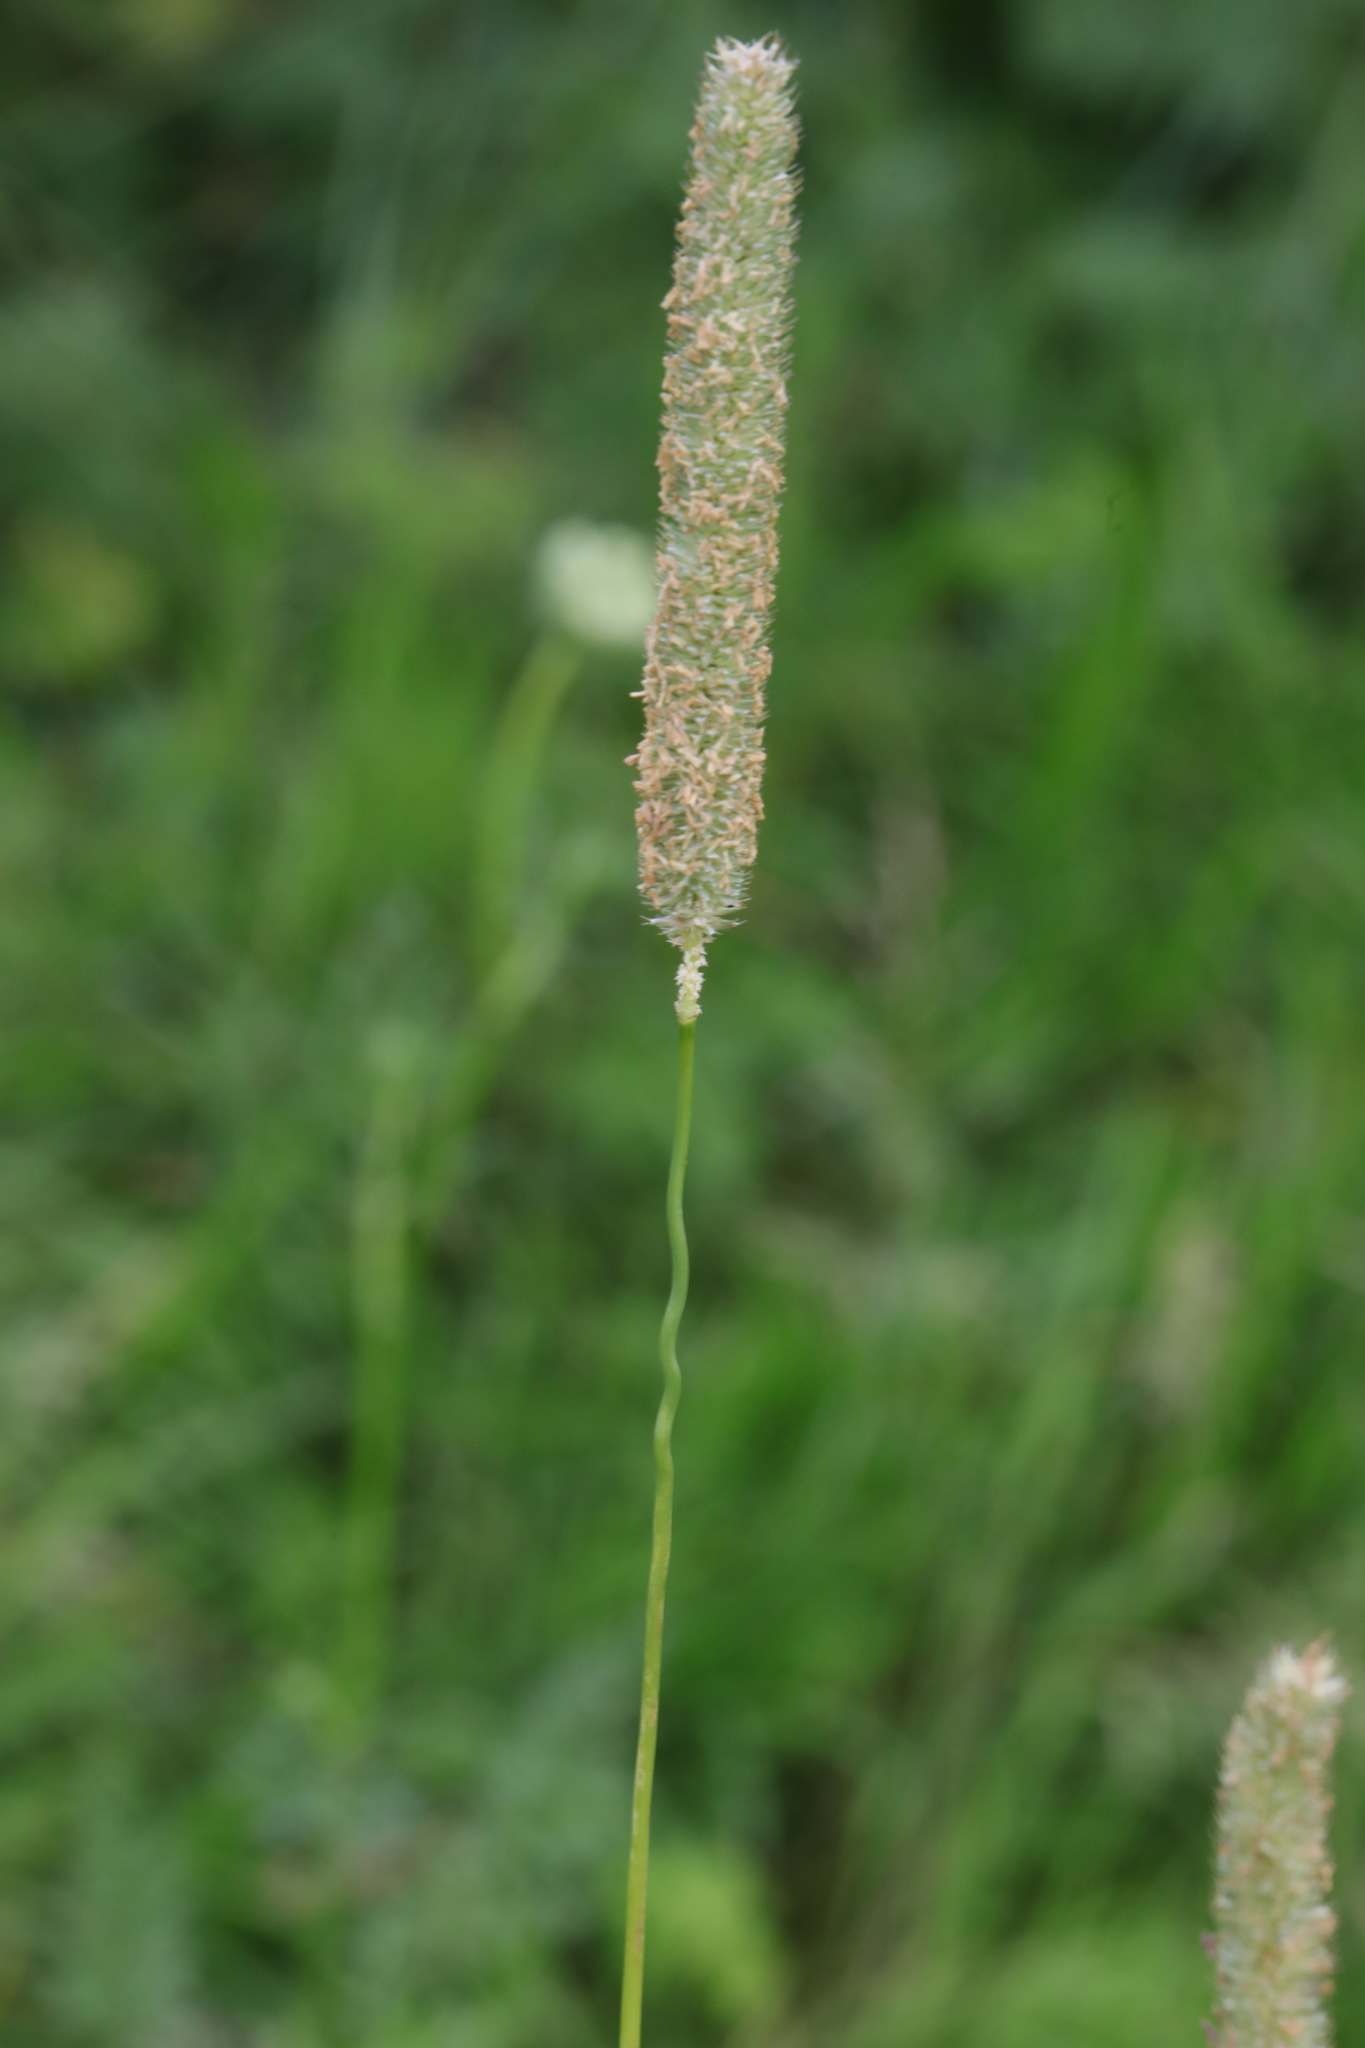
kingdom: Plantae
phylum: Tracheophyta
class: Liliopsida
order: Poales
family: Poaceae
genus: Phleum
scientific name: Phleum pratense
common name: Timothy grass
